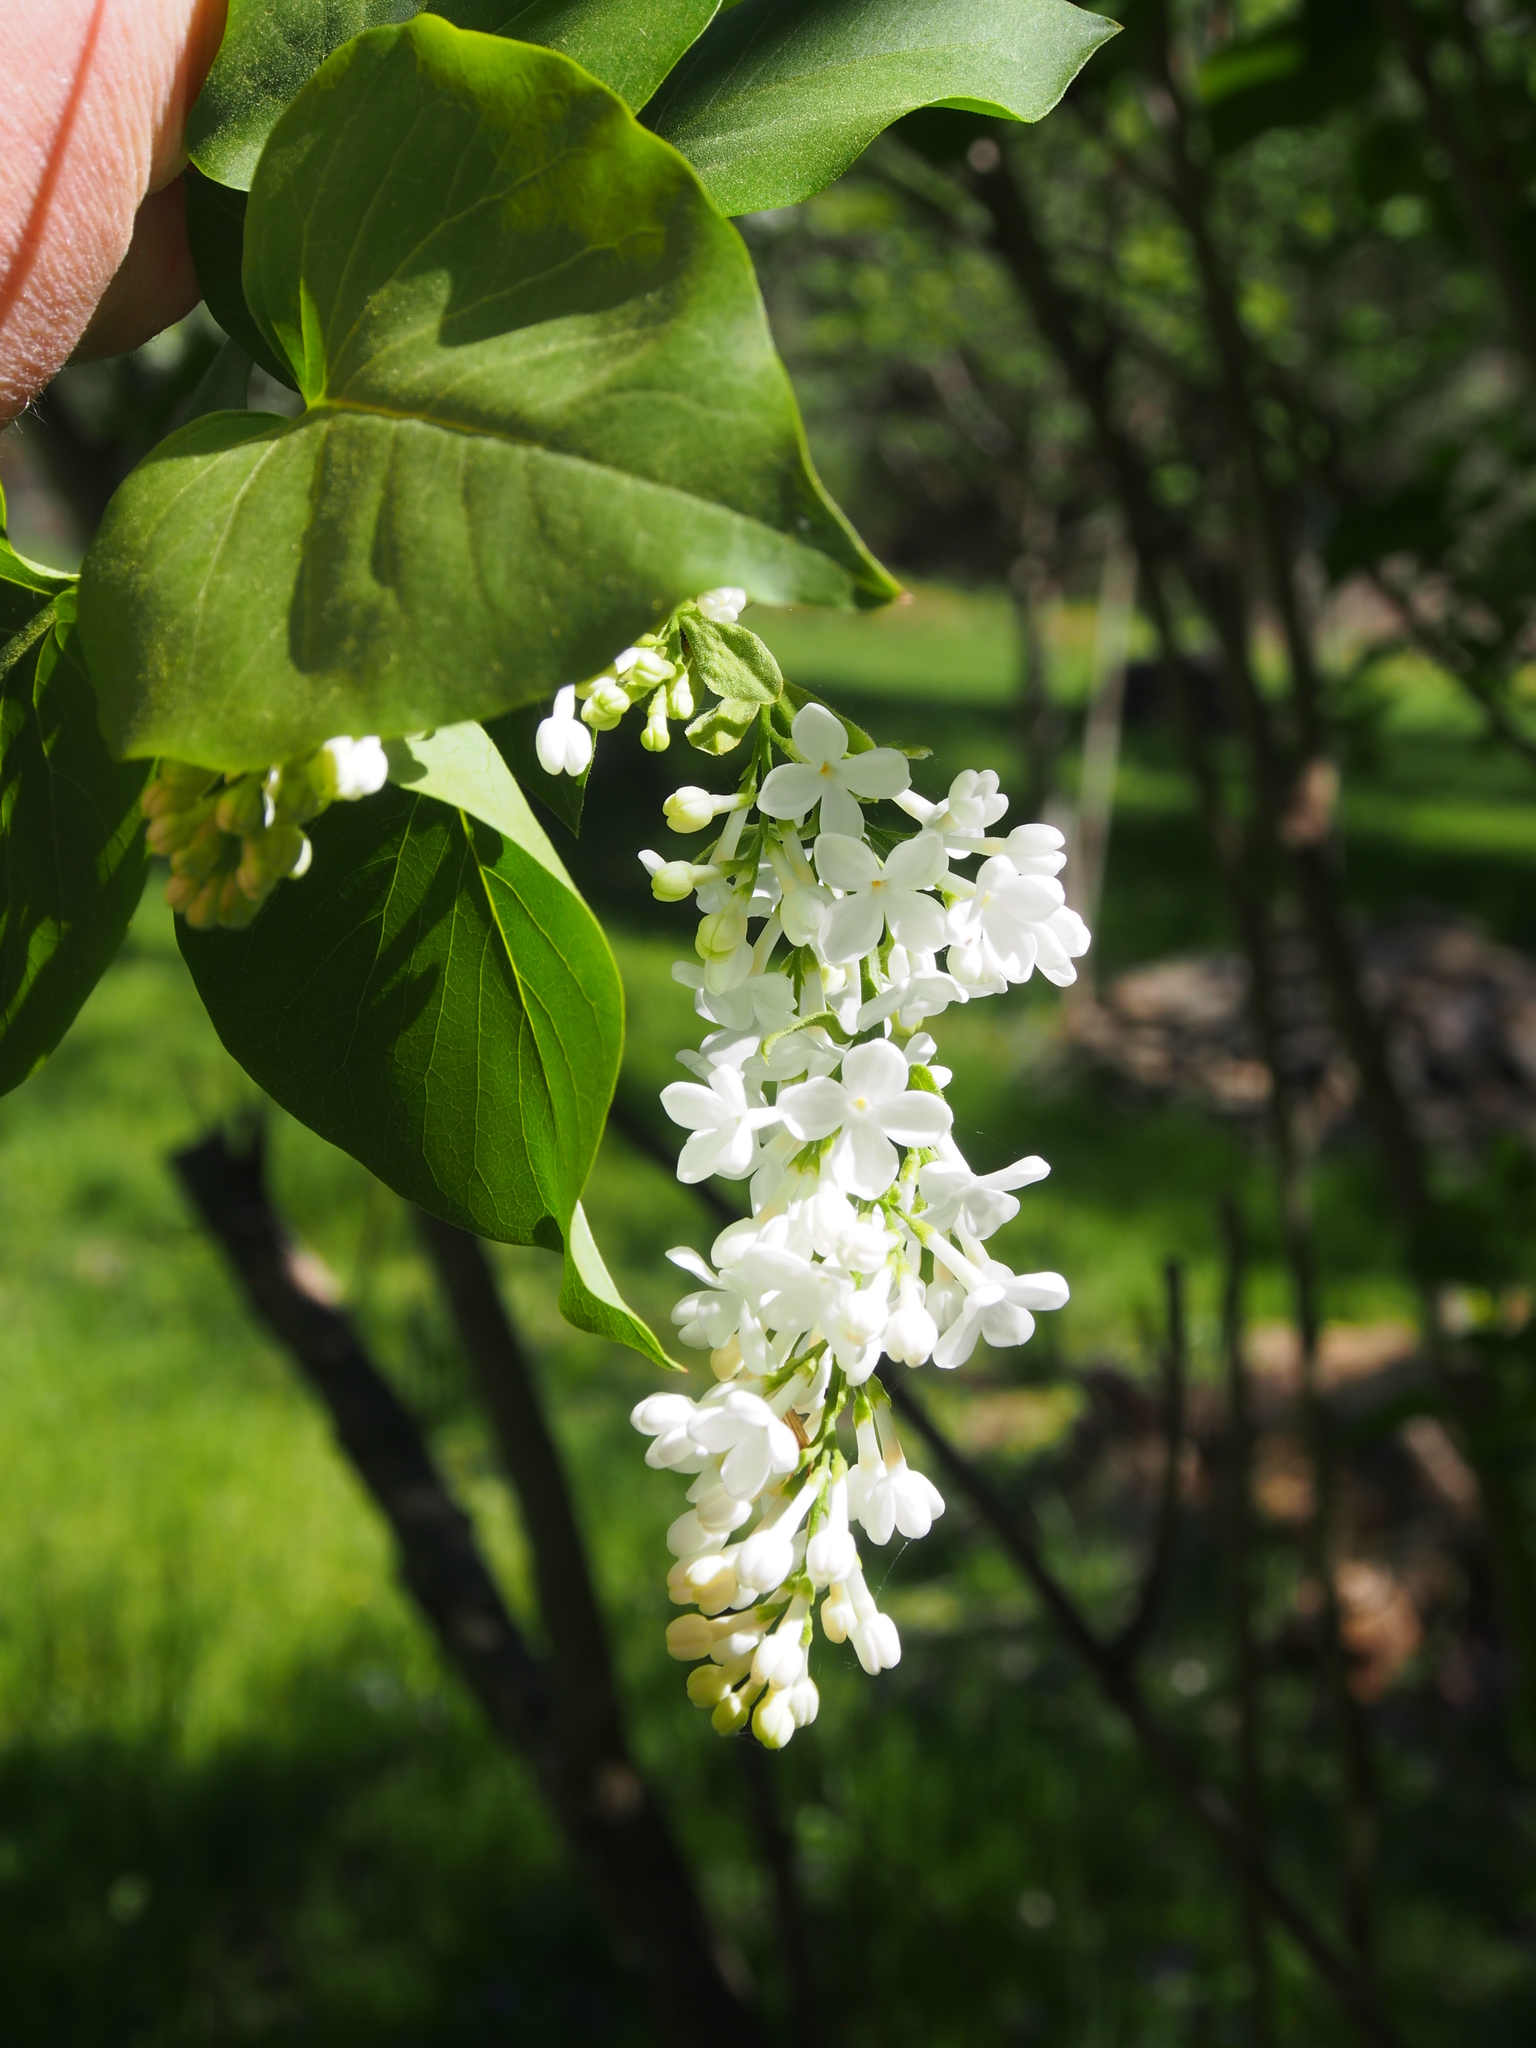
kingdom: Plantae
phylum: Tracheophyta
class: Magnoliopsida
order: Lamiales
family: Oleaceae
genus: Syringa
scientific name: Syringa vulgaris
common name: Common lilac
